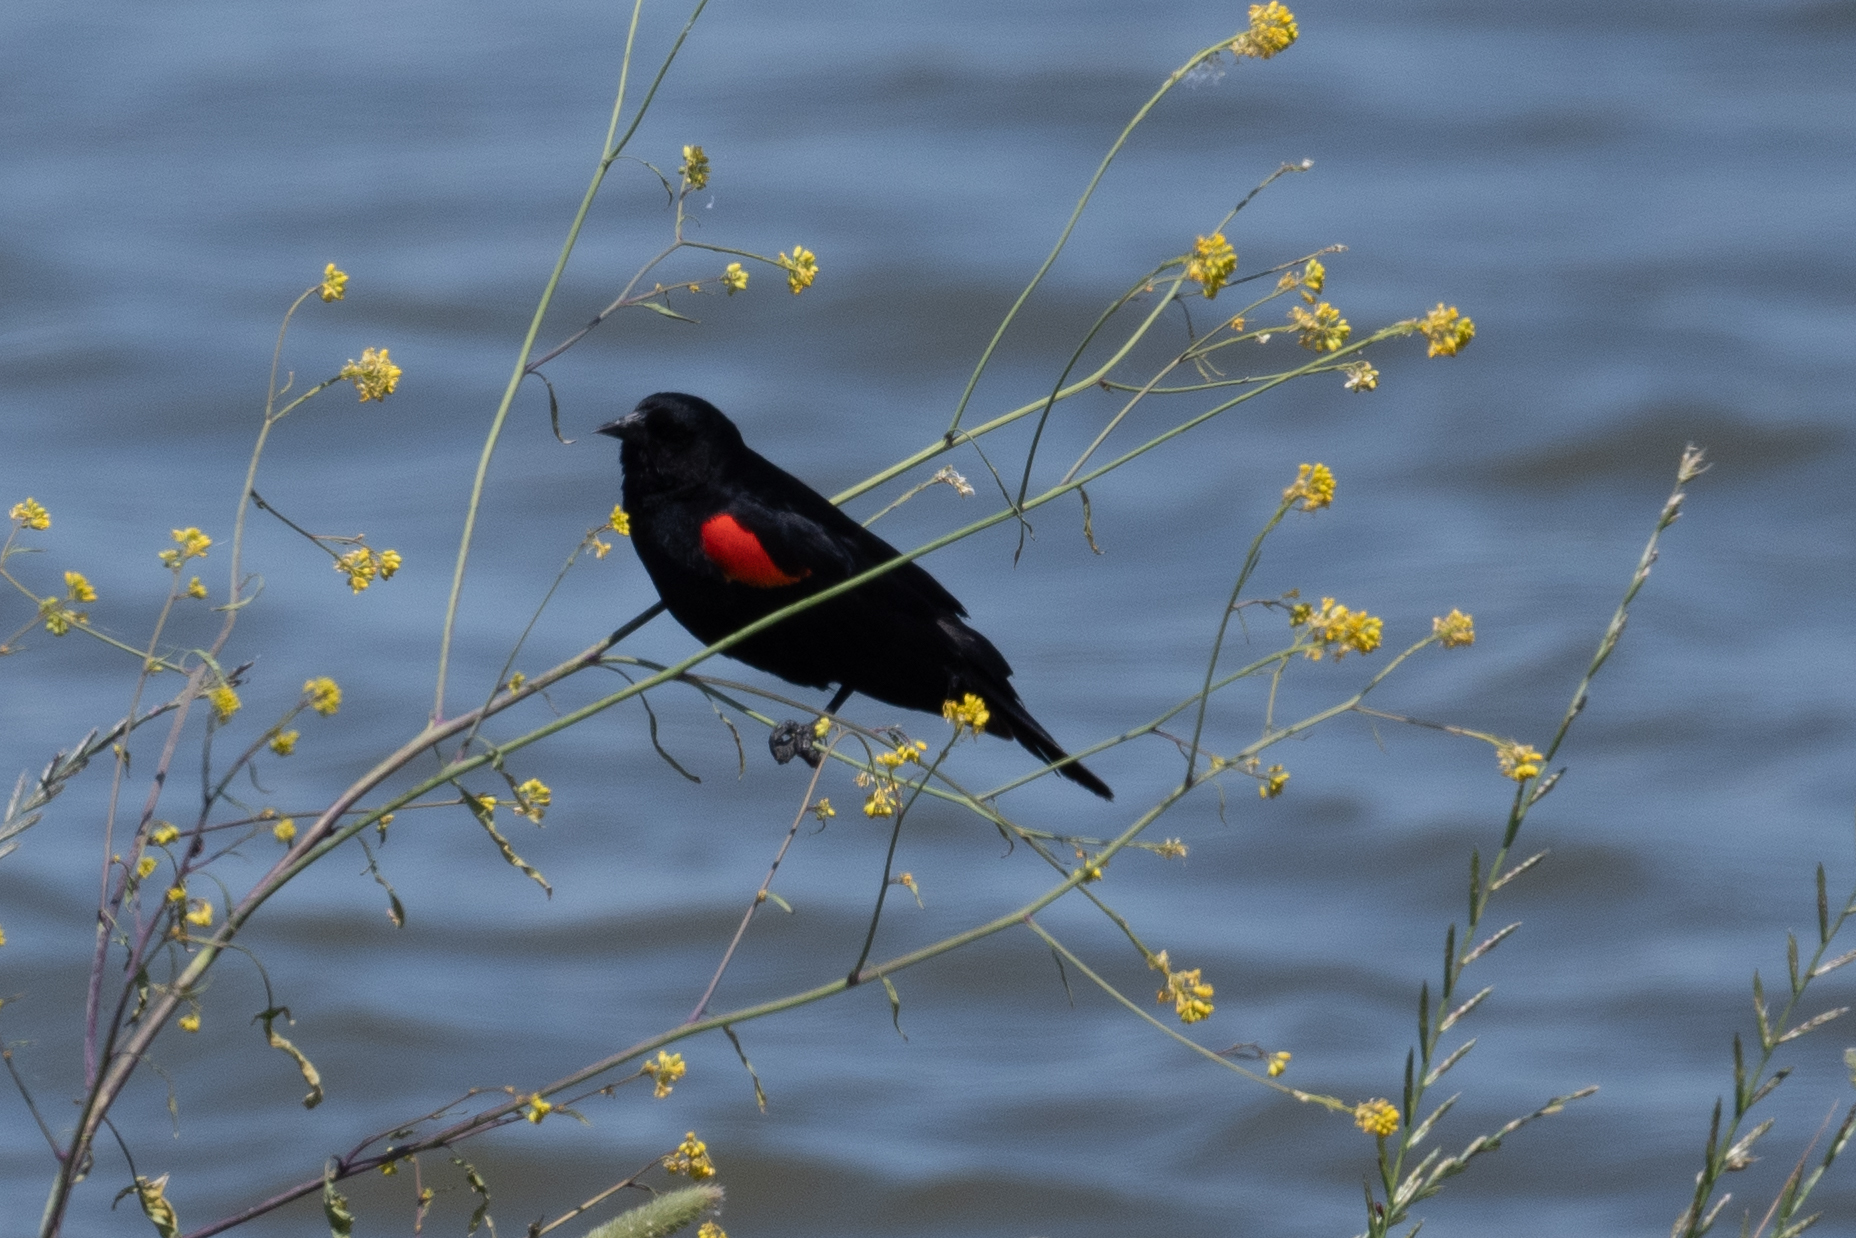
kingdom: Animalia
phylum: Chordata
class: Aves
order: Passeriformes
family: Icteridae
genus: Agelaius
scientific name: Agelaius phoeniceus
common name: Red-winged blackbird
